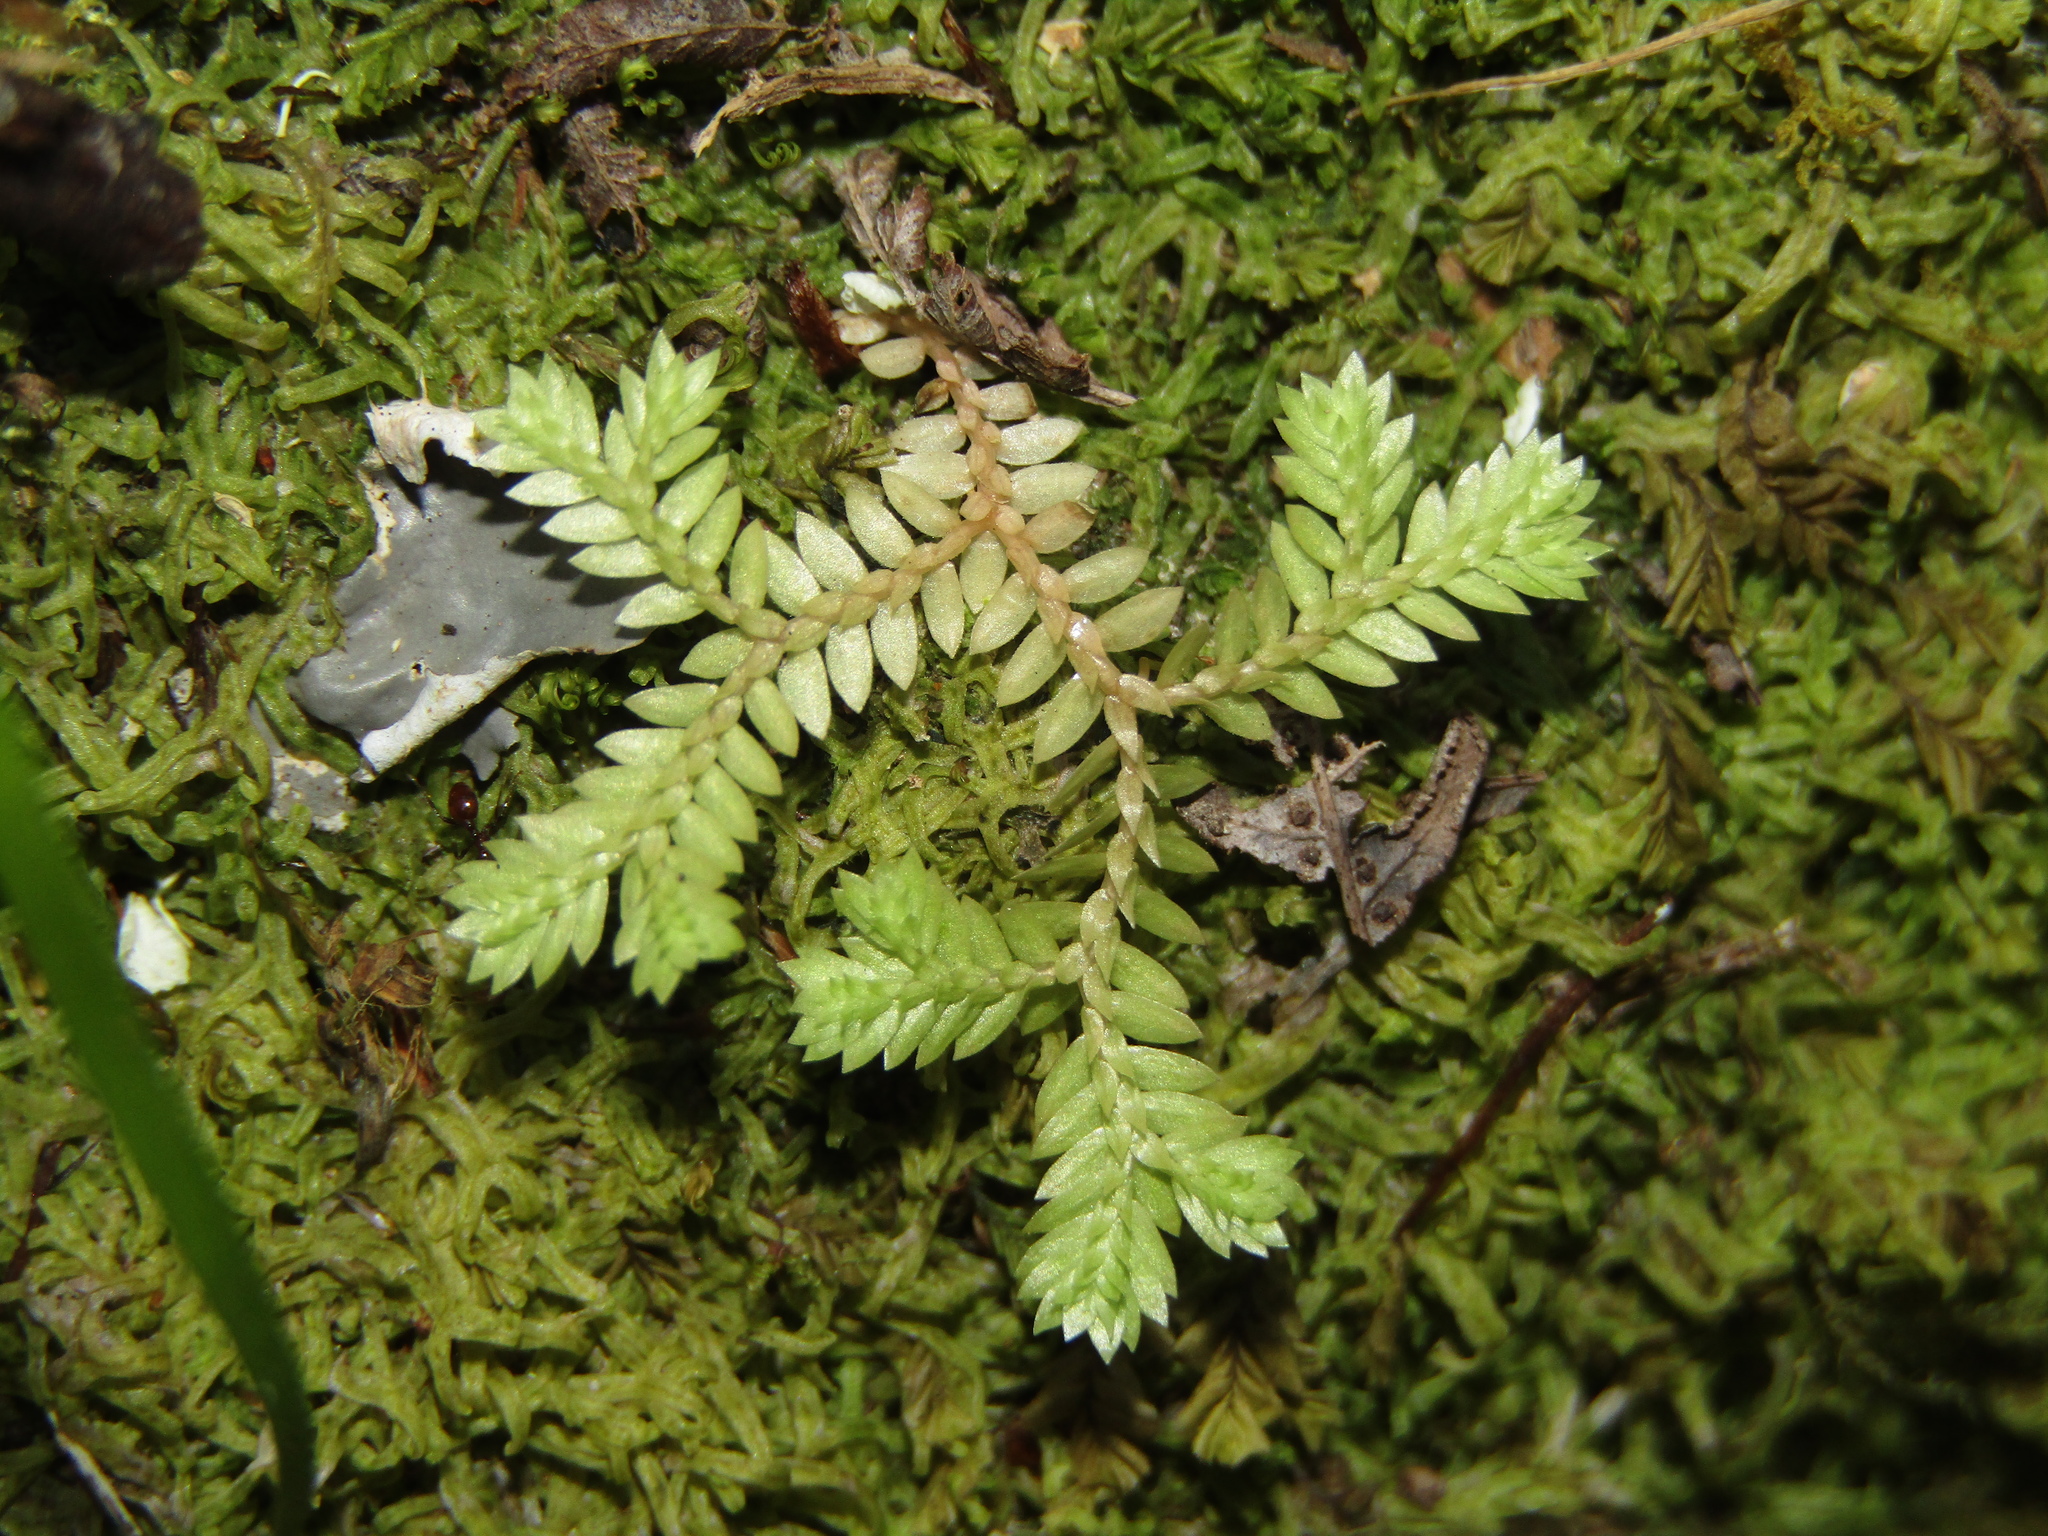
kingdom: Plantae
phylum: Tracheophyta
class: Lycopodiopsida
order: Selaginellales
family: Selaginellaceae
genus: Selaginella
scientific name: Selaginella kraussiana
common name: Krauss' spikemoss
